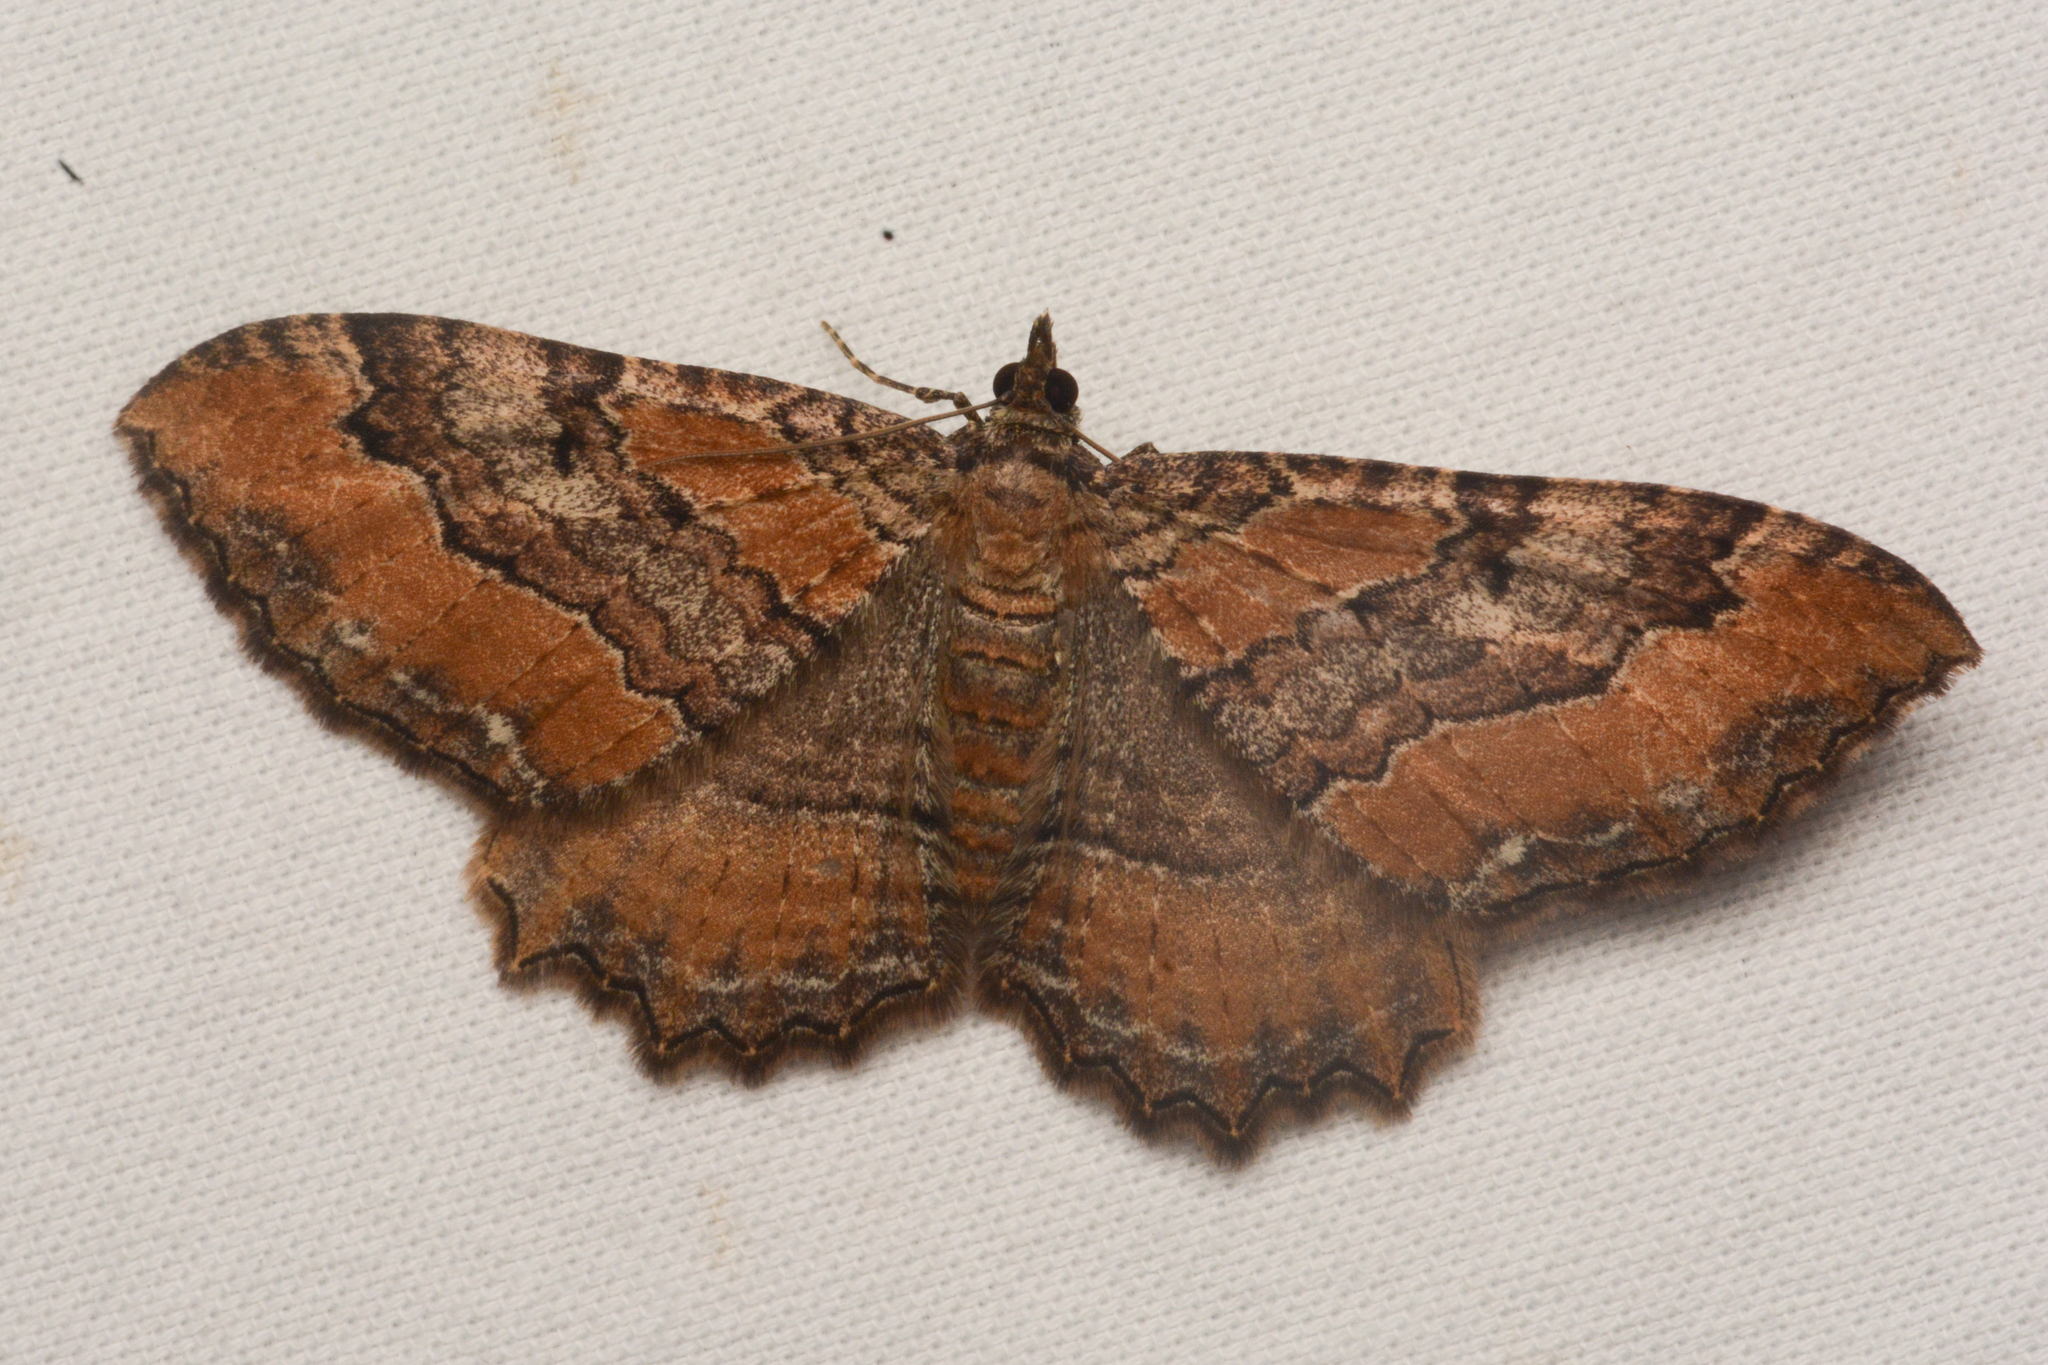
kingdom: Animalia
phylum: Arthropoda
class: Insecta
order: Lepidoptera
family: Geometridae
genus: Rheumaptera
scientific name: Rheumaptera
